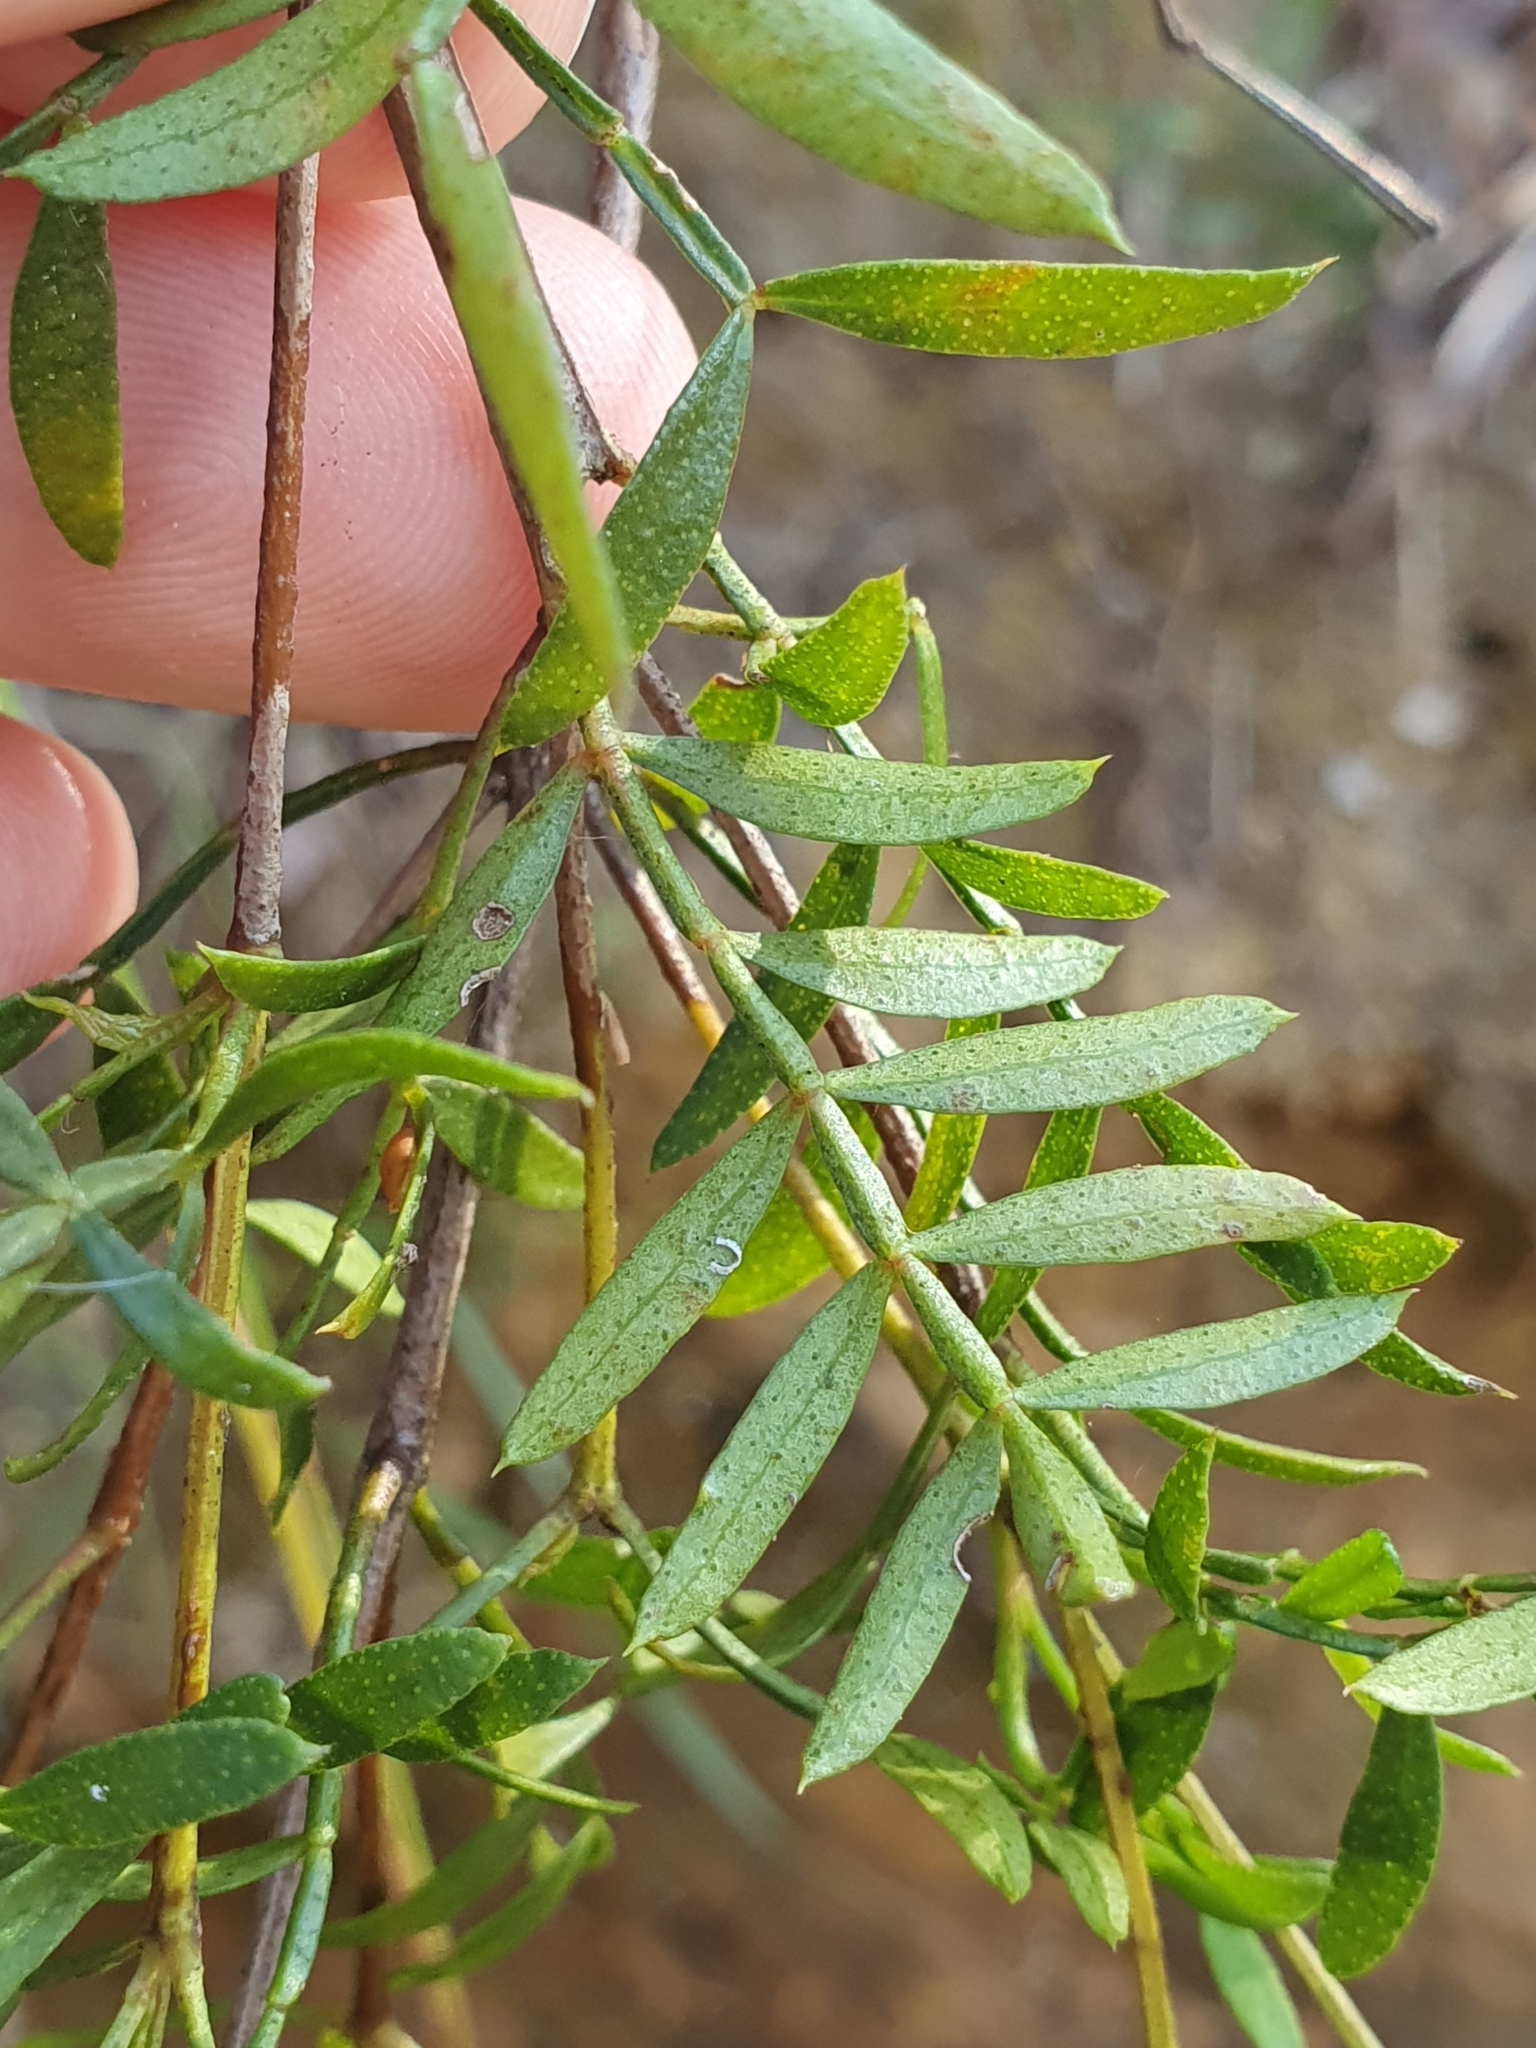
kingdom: Plantae
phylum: Tracheophyta
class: Magnoliopsida
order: Sapindales
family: Rutaceae
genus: Boronia
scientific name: Boronia floribunda
